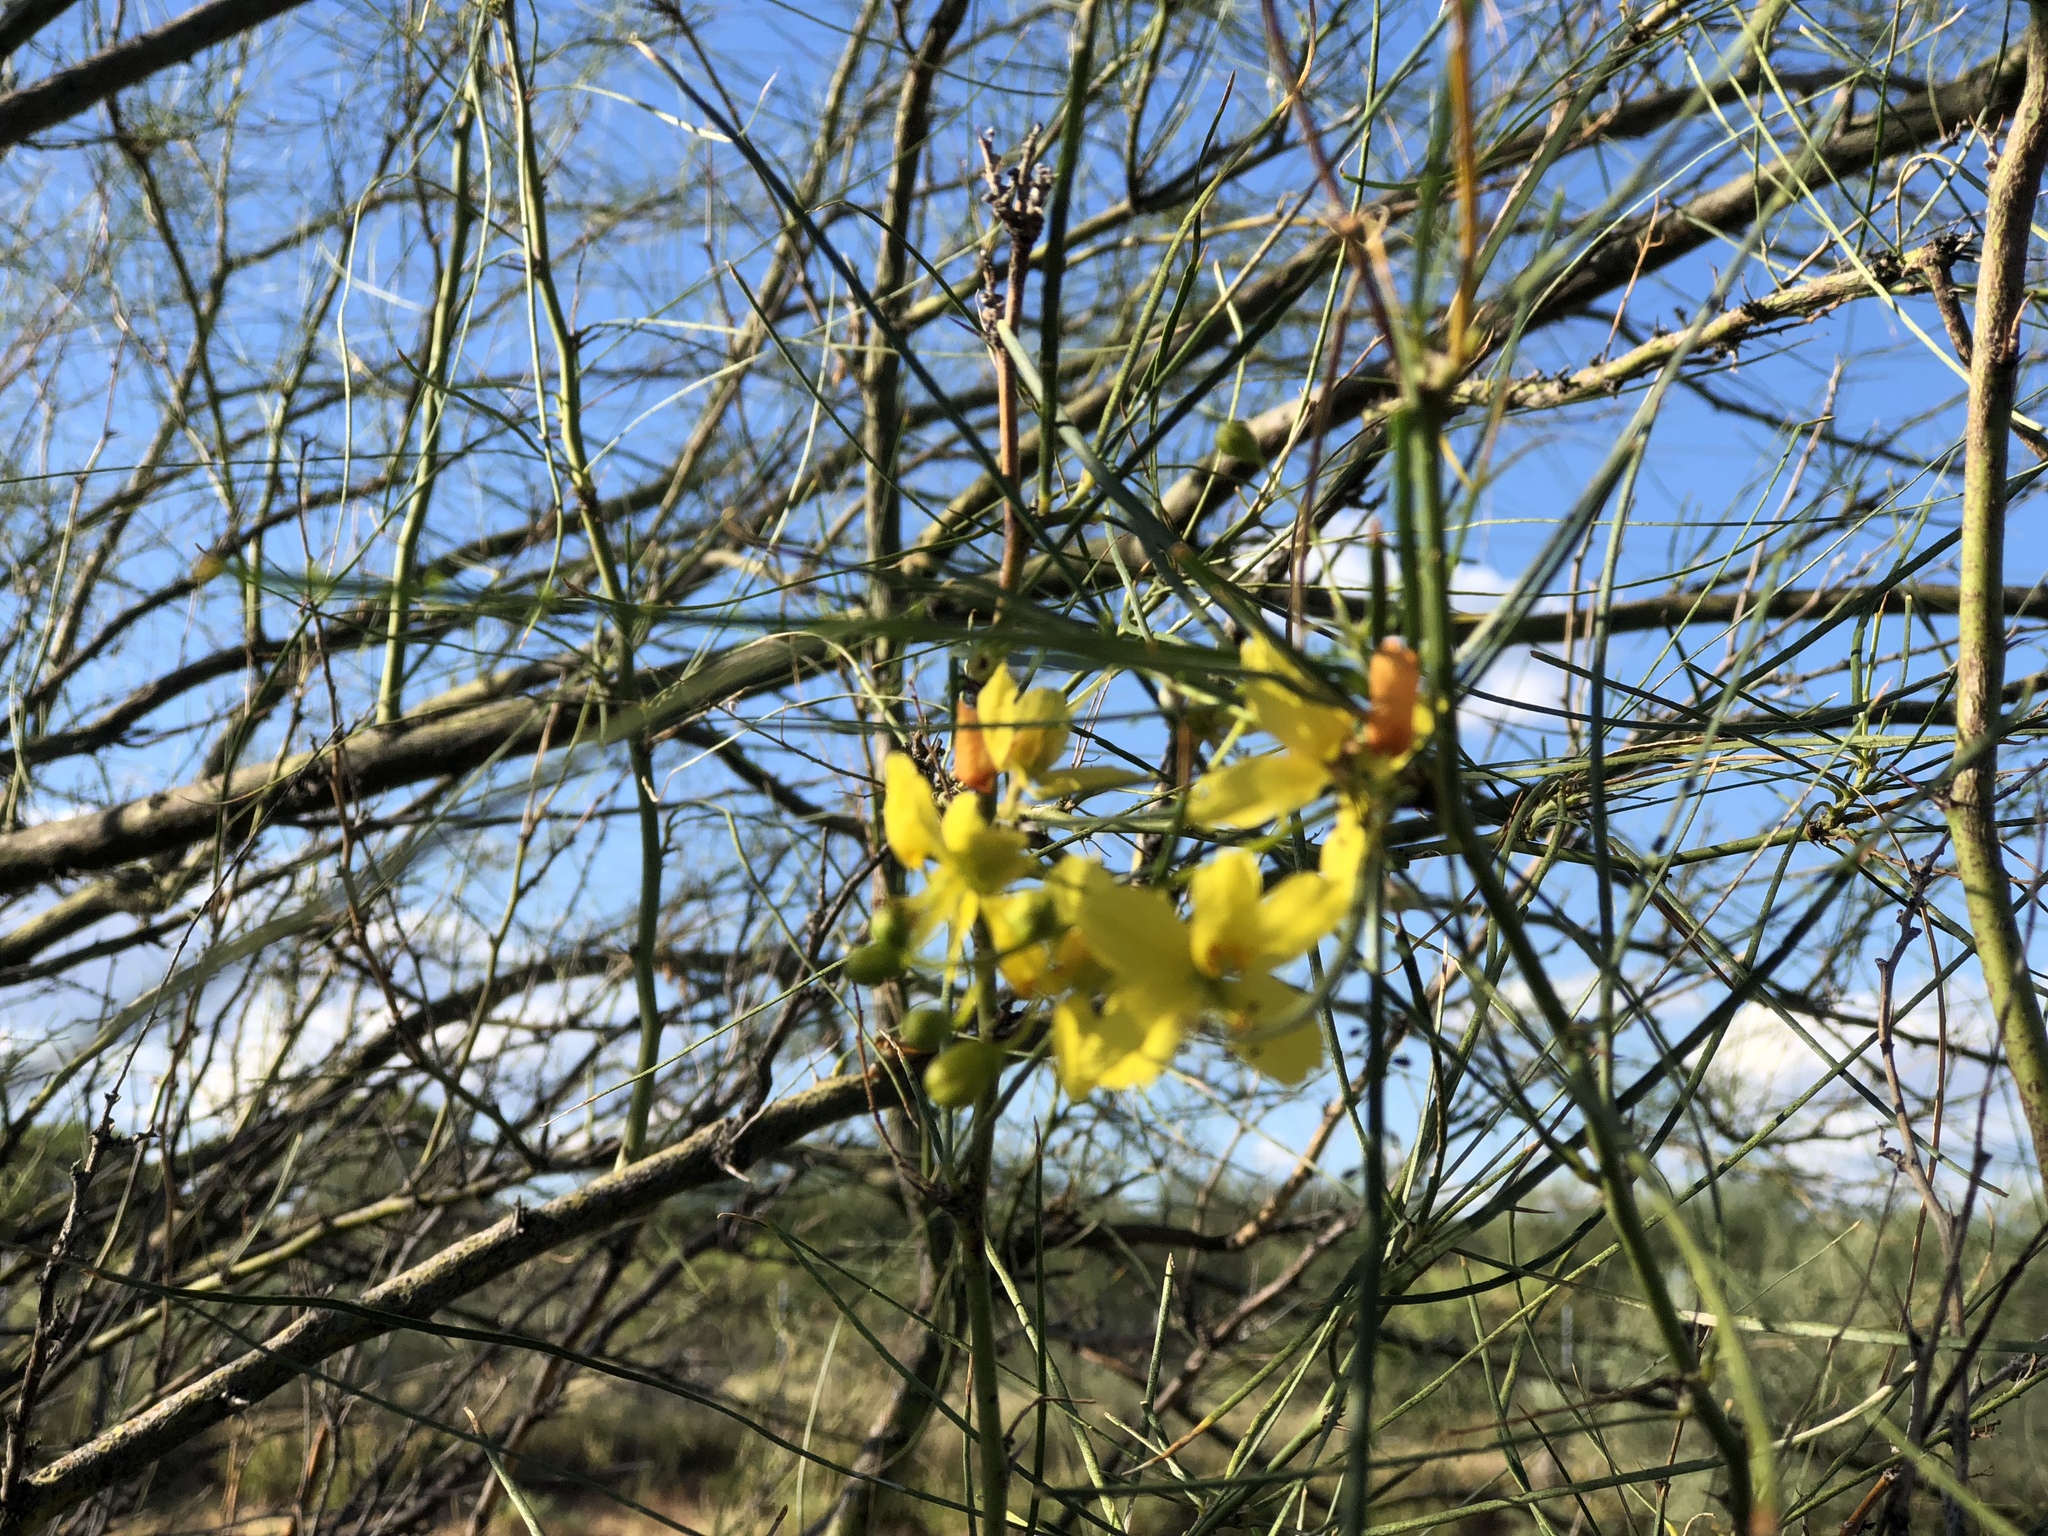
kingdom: Plantae
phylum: Tracheophyta
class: Magnoliopsida
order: Fabales
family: Fabaceae
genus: Parkinsonia
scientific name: Parkinsonia aculeata
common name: Jerusalem thorn
